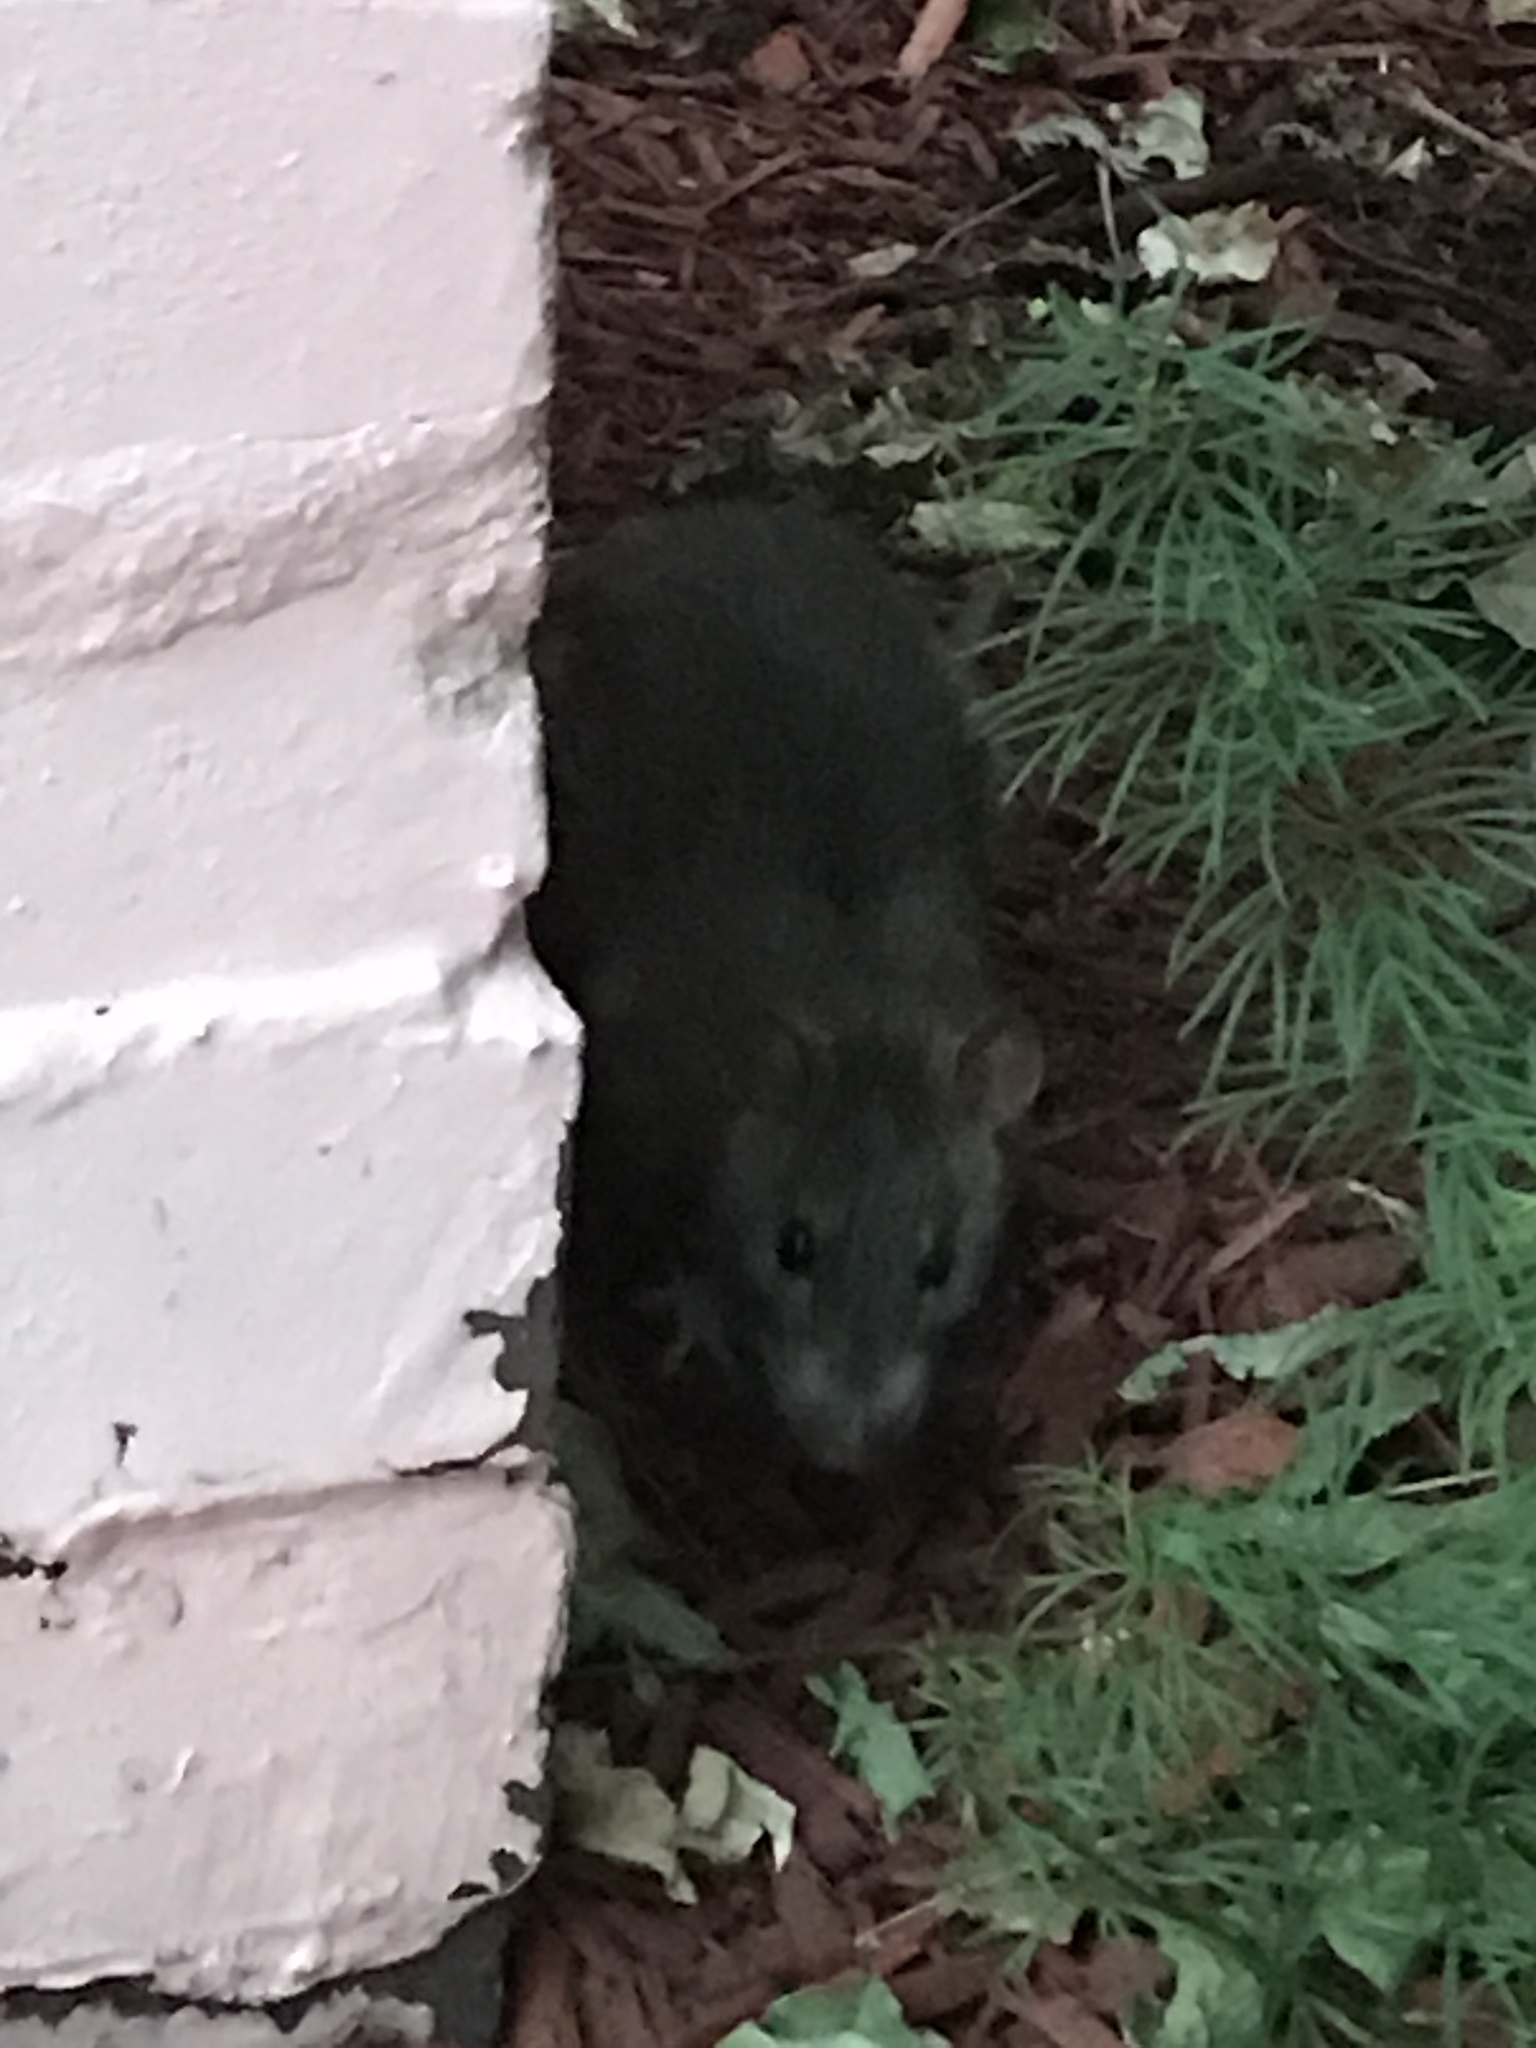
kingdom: Animalia
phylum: Chordata
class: Mammalia
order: Rodentia
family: Muridae
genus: Rattus
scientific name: Rattus norvegicus
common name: Brown rat
